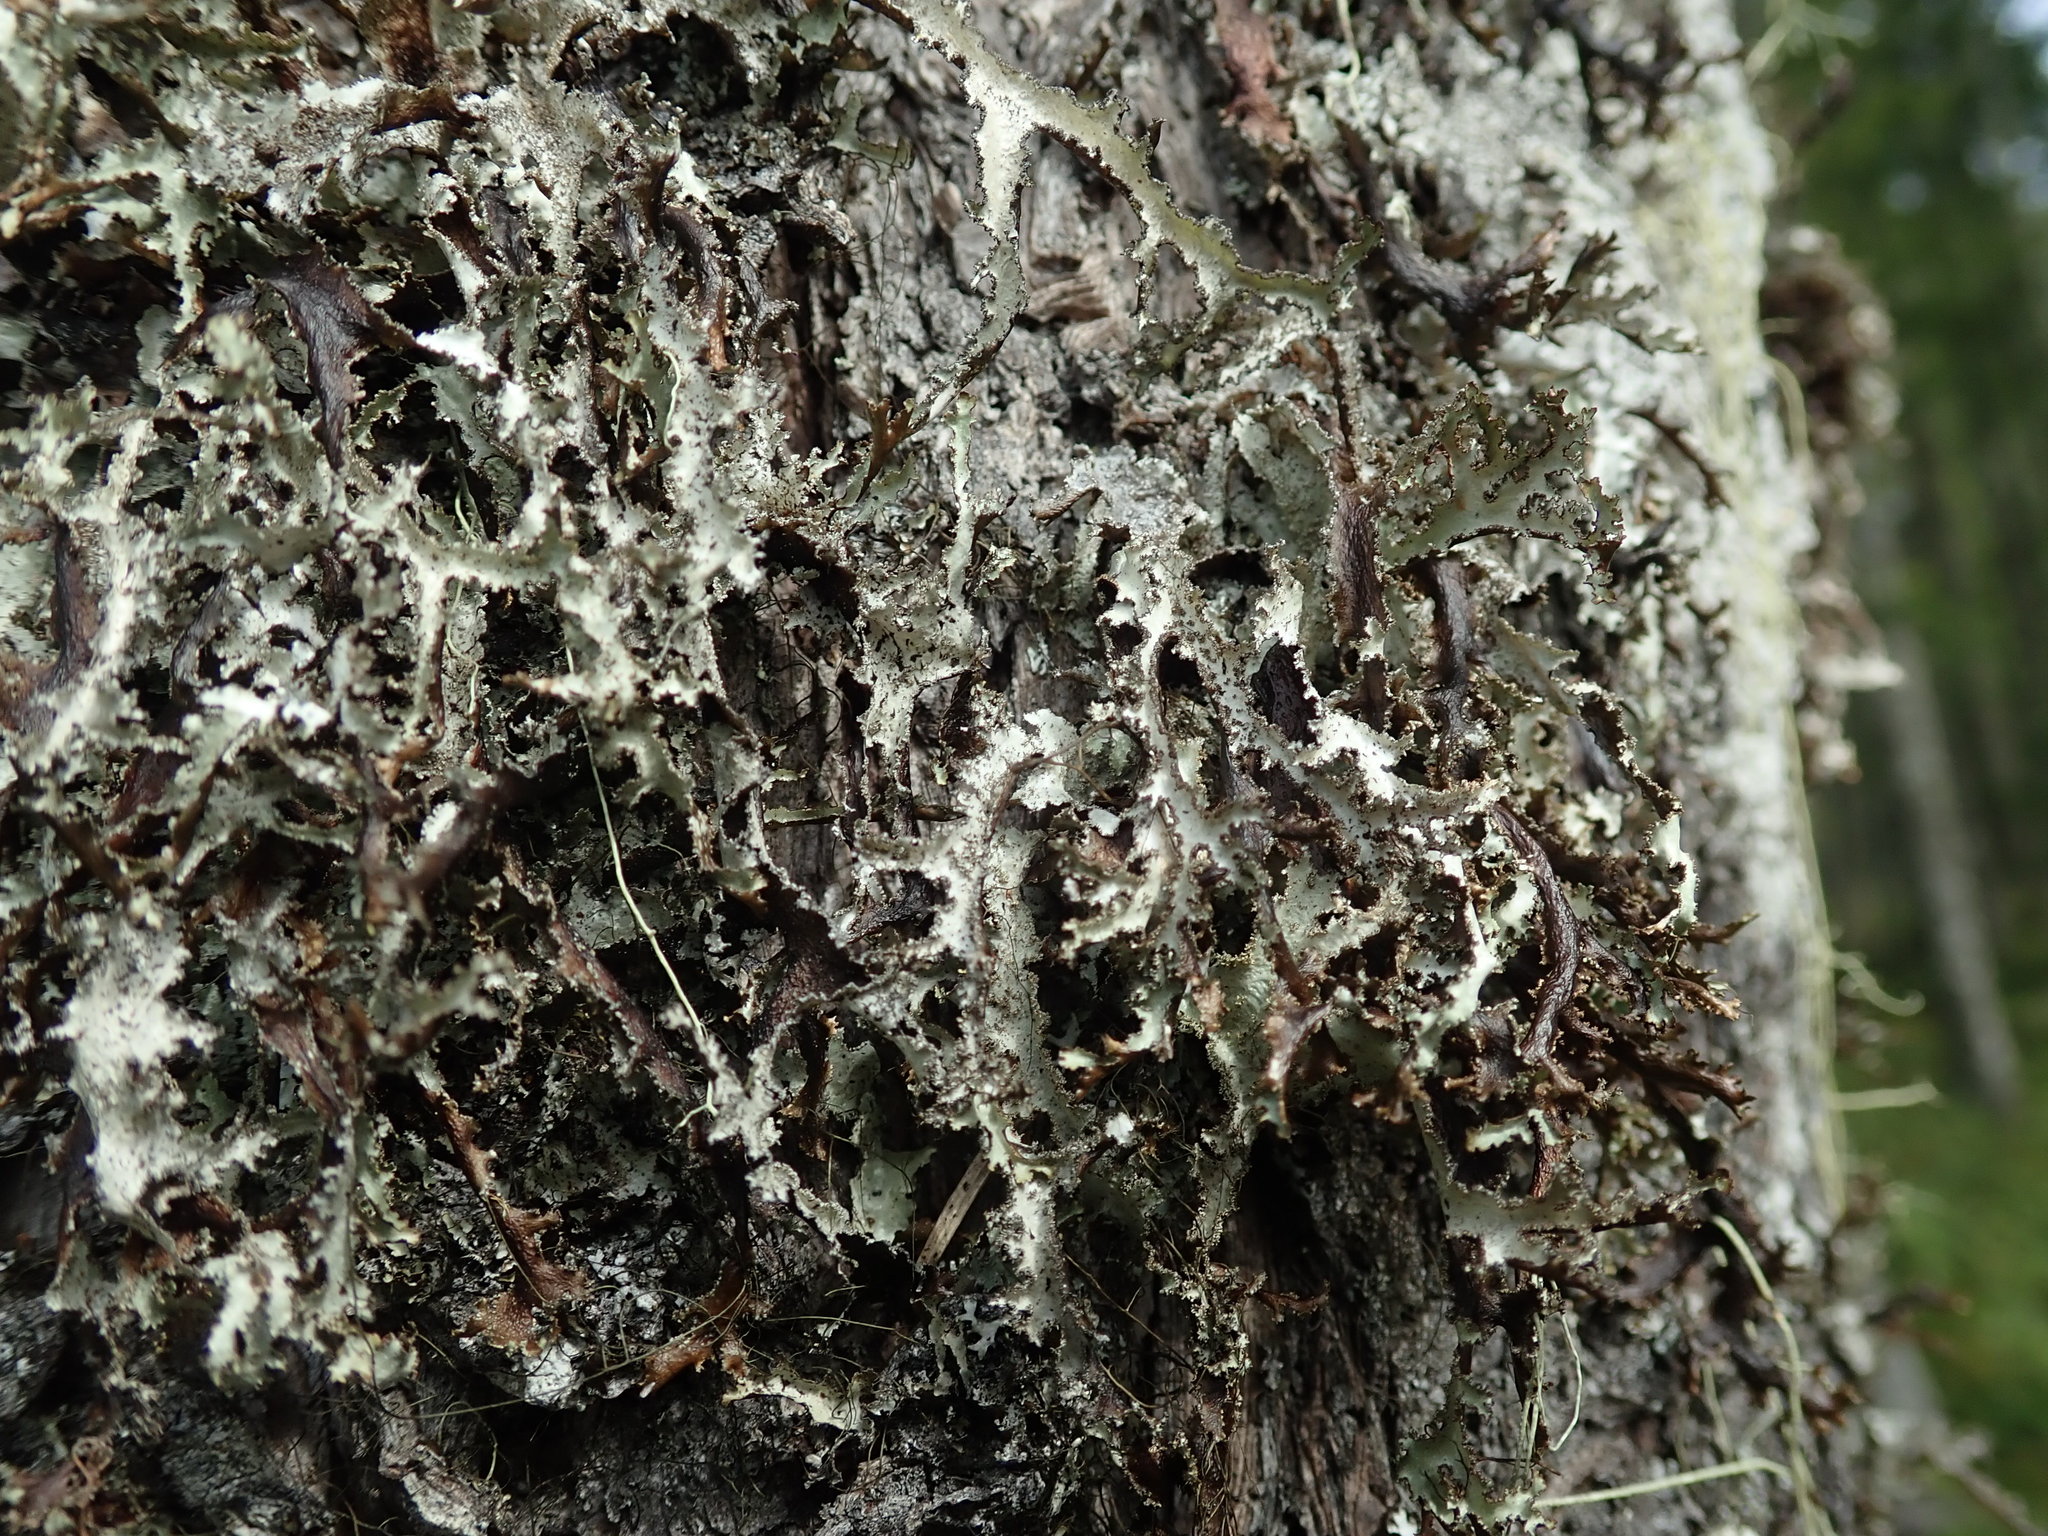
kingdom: Fungi
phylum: Ascomycota
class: Lecanoromycetes
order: Lecanorales
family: Parmeliaceae
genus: Platismatia
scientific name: Platismatia herrei
